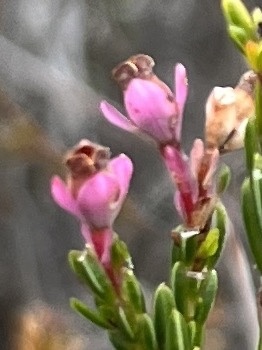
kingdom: Plantae
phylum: Tracheophyta
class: Magnoliopsida
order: Ericales
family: Ericaceae
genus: Erica
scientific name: Erica articularis
